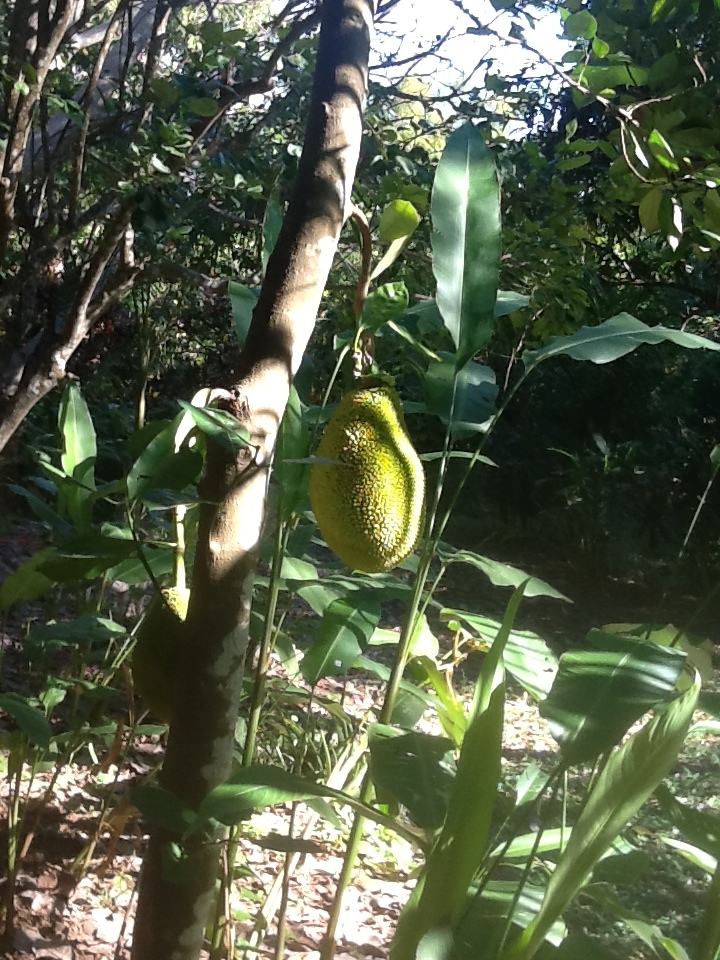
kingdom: Plantae
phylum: Tracheophyta
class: Magnoliopsida
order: Rosales
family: Moraceae
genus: Artocarpus
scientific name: Artocarpus heterophyllus
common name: Jackfruit
